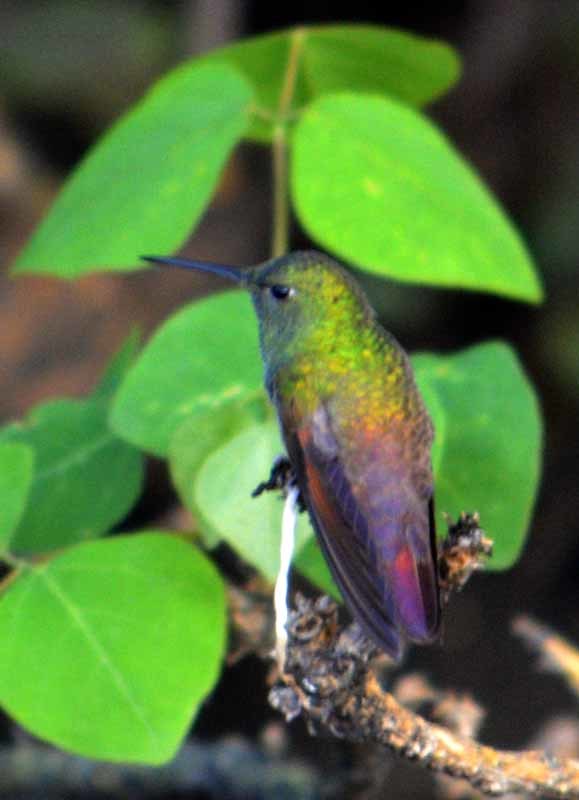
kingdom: Animalia
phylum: Chordata
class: Aves
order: Apodiformes
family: Trochilidae
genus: Saucerottia
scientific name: Saucerottia beryllina
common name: Berylline hummingbird
